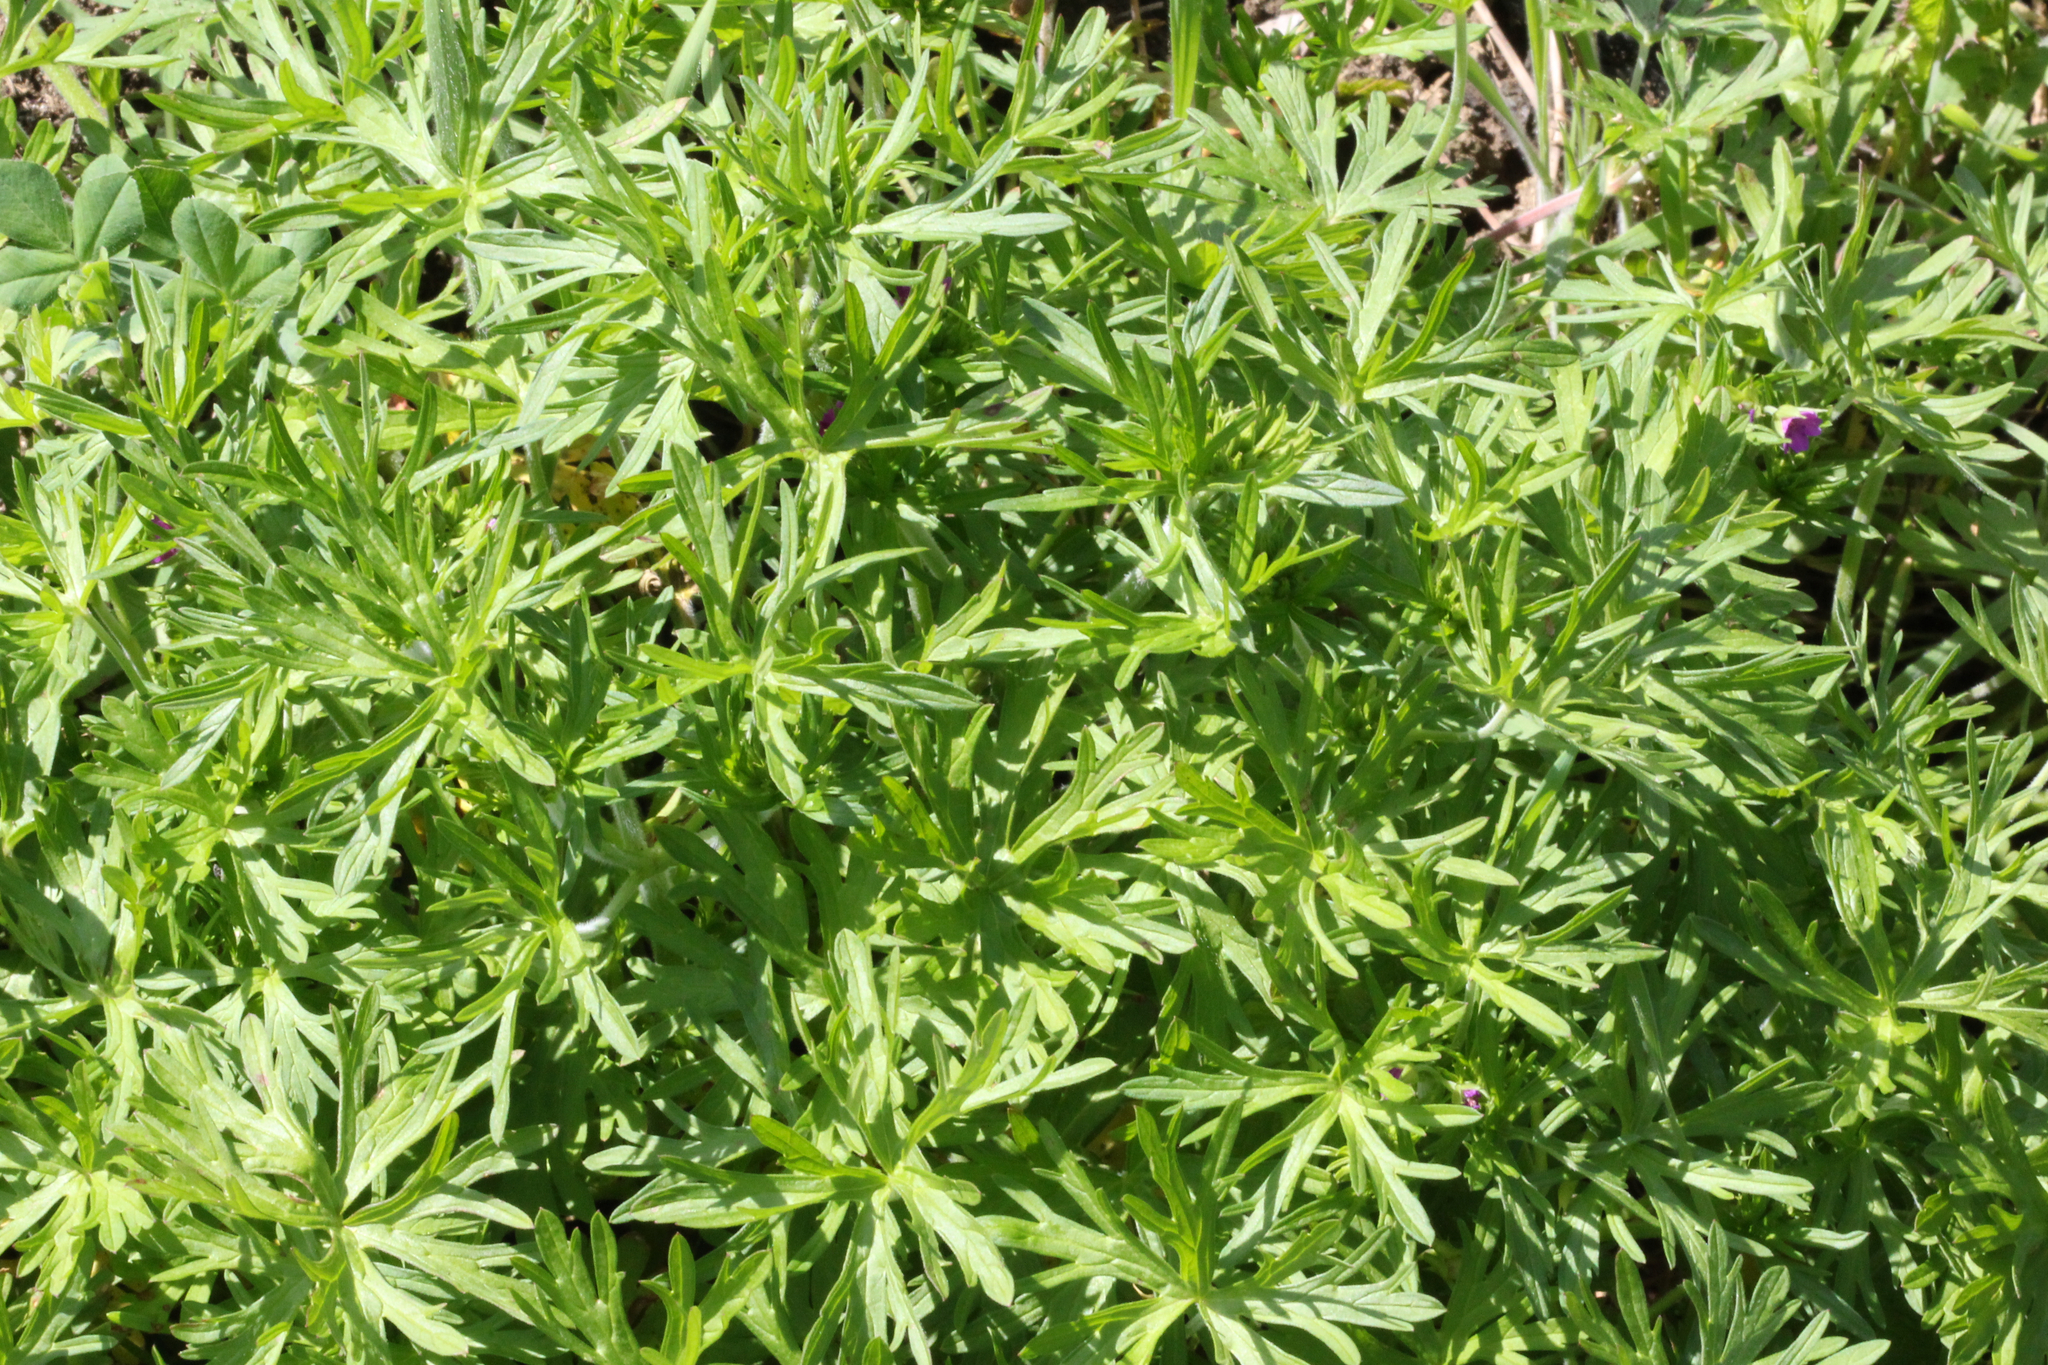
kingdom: Plantae
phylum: Tracheophyta
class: Magnoliopsida
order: Geraniales
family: Geraniaceae
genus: Geranium
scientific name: Geranium dissectum
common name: Cut-leaved crane's-bill
